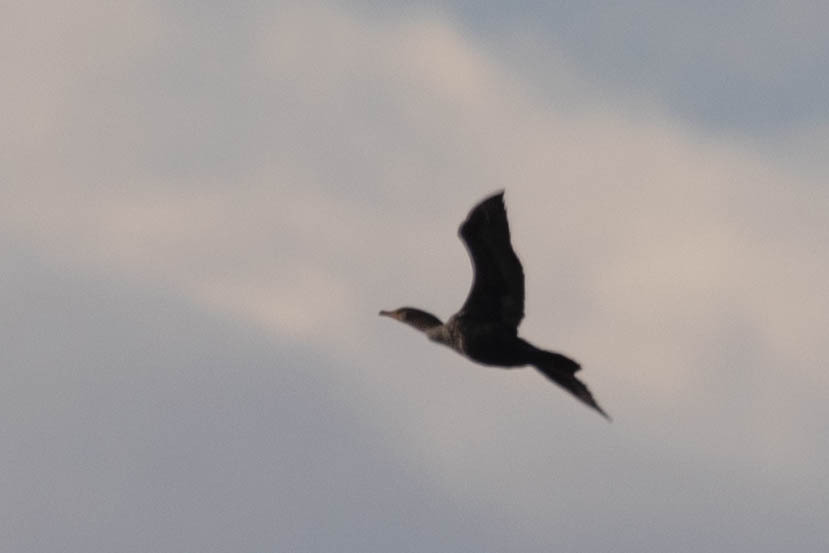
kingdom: Animalia
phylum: Chordata
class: Aves
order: Suliformes
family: Phalacrocoracidae
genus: Phalacrocorax
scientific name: Phalacrocorax auritus
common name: Double-crested cormorant
